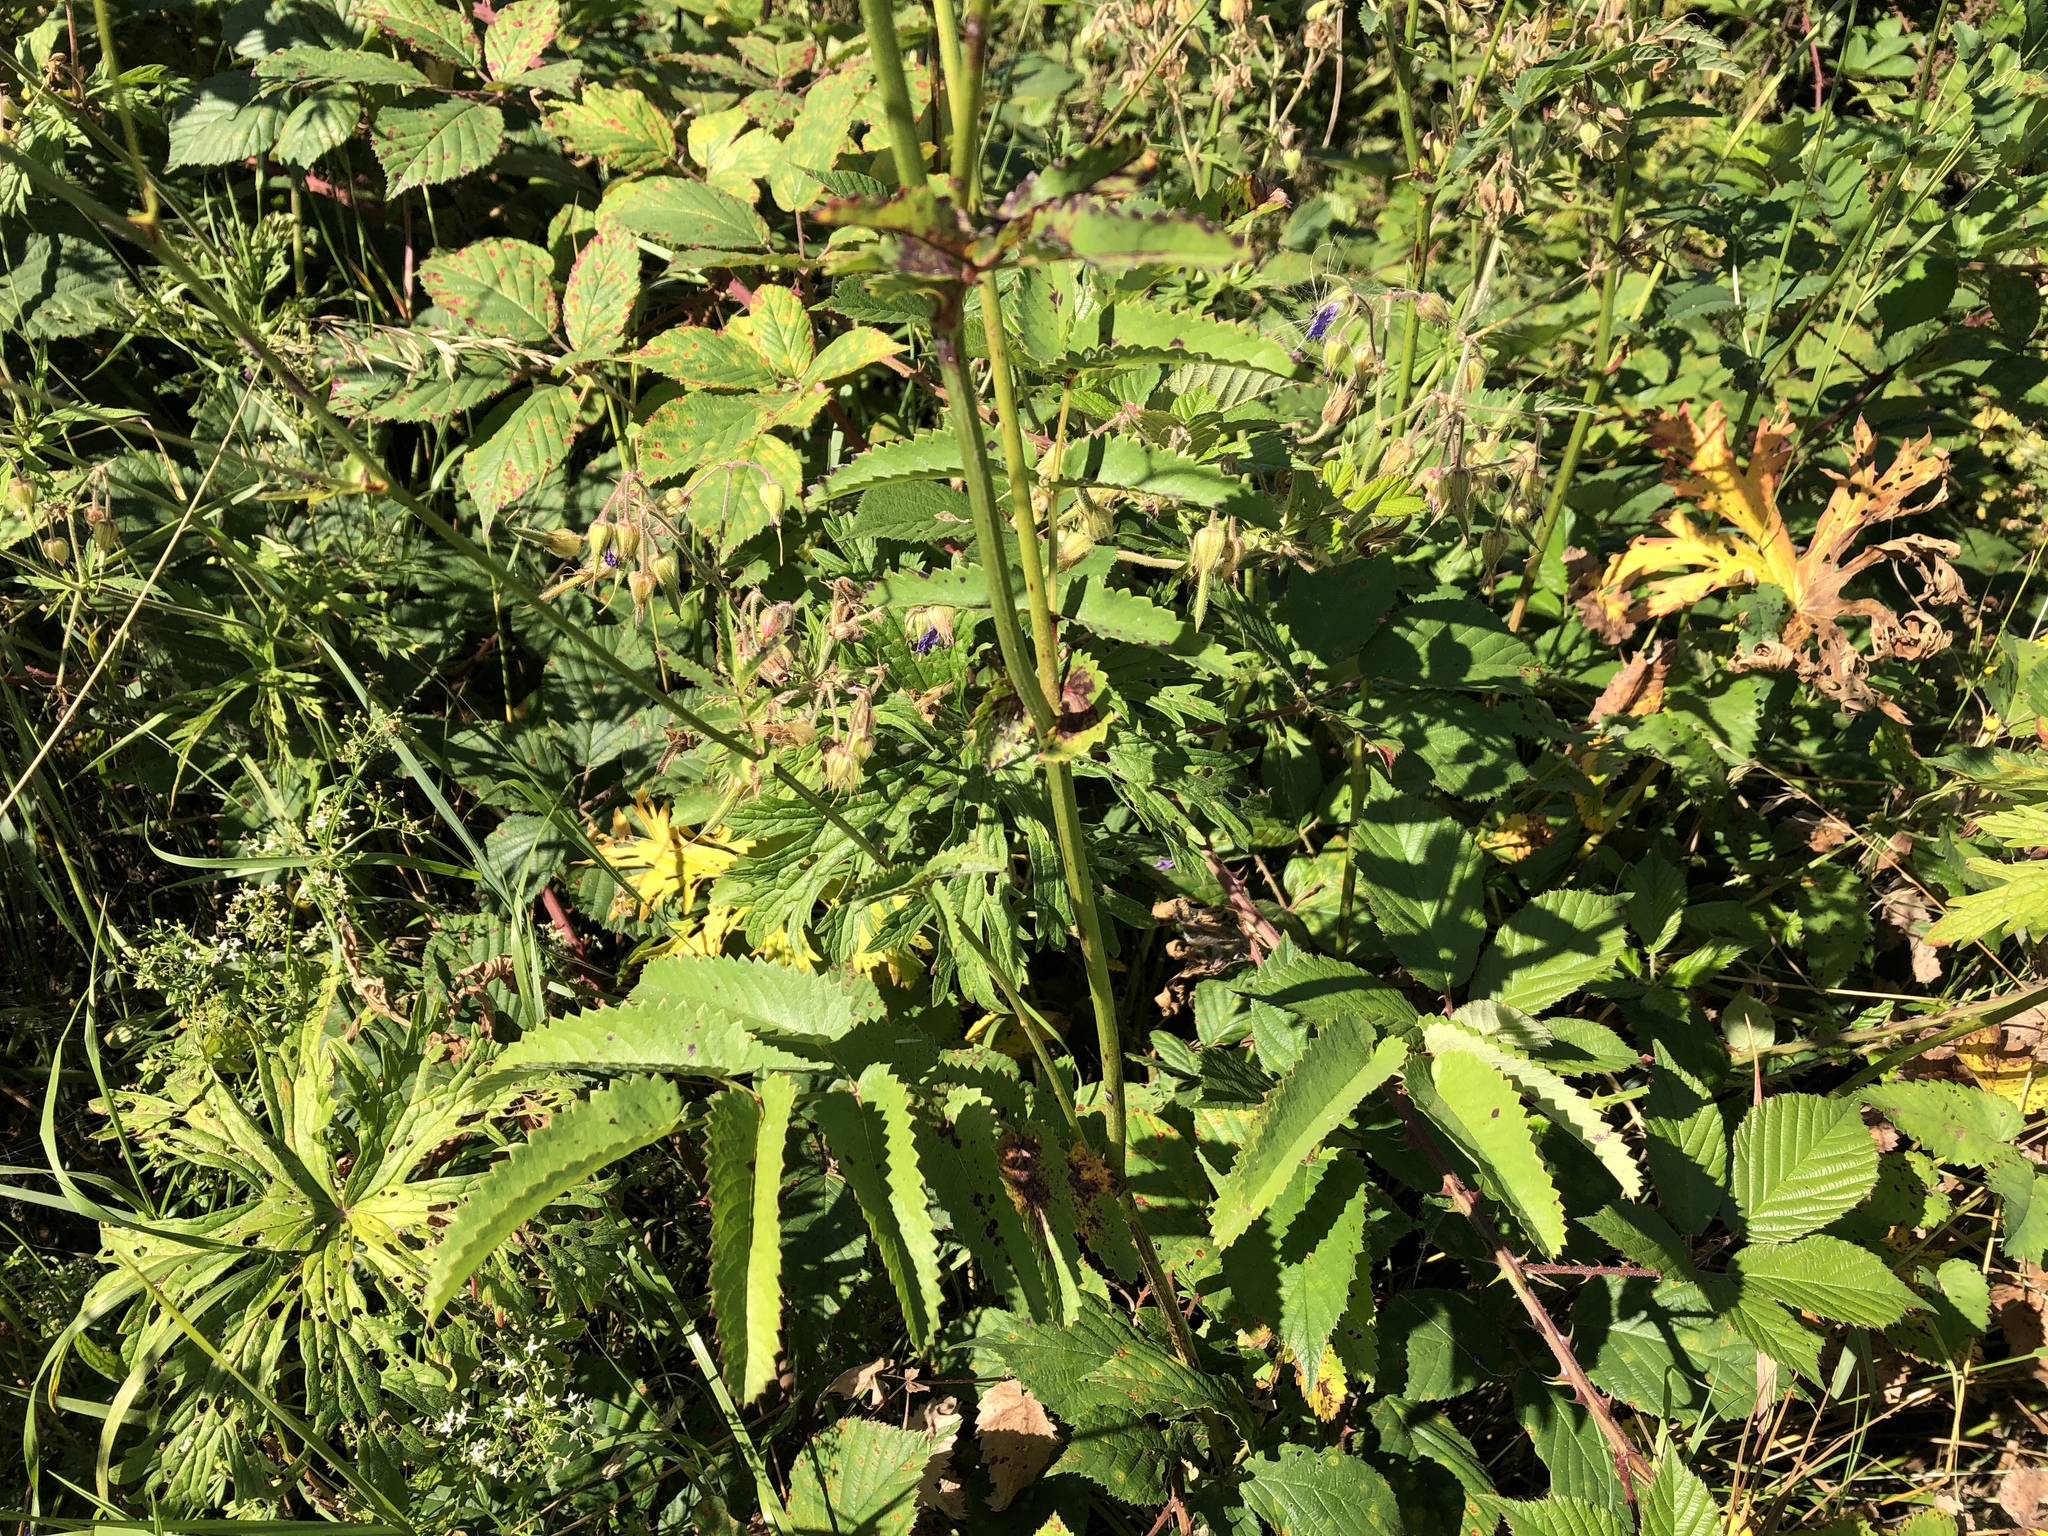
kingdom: Plantae
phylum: Tracheophyta
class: Magnoliopsida
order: Rosales
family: Rosaceae
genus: Sanguisorba
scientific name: Sanguisorba officinalis
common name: Great burnet
